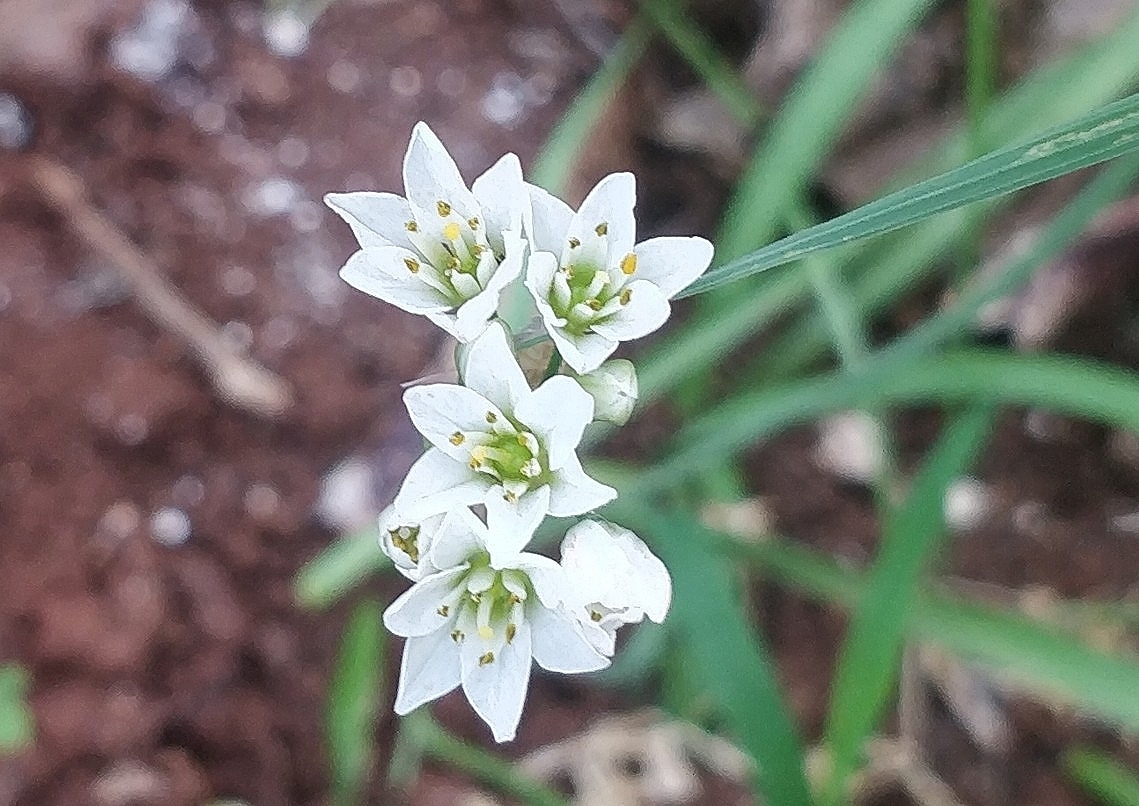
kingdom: Plantae
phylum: Tracheophyta
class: Liliopsida
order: Asparagales
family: Amaryllidaceae
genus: Nothoscordum
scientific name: Nothoscordum gracile
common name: Slender false garlic
